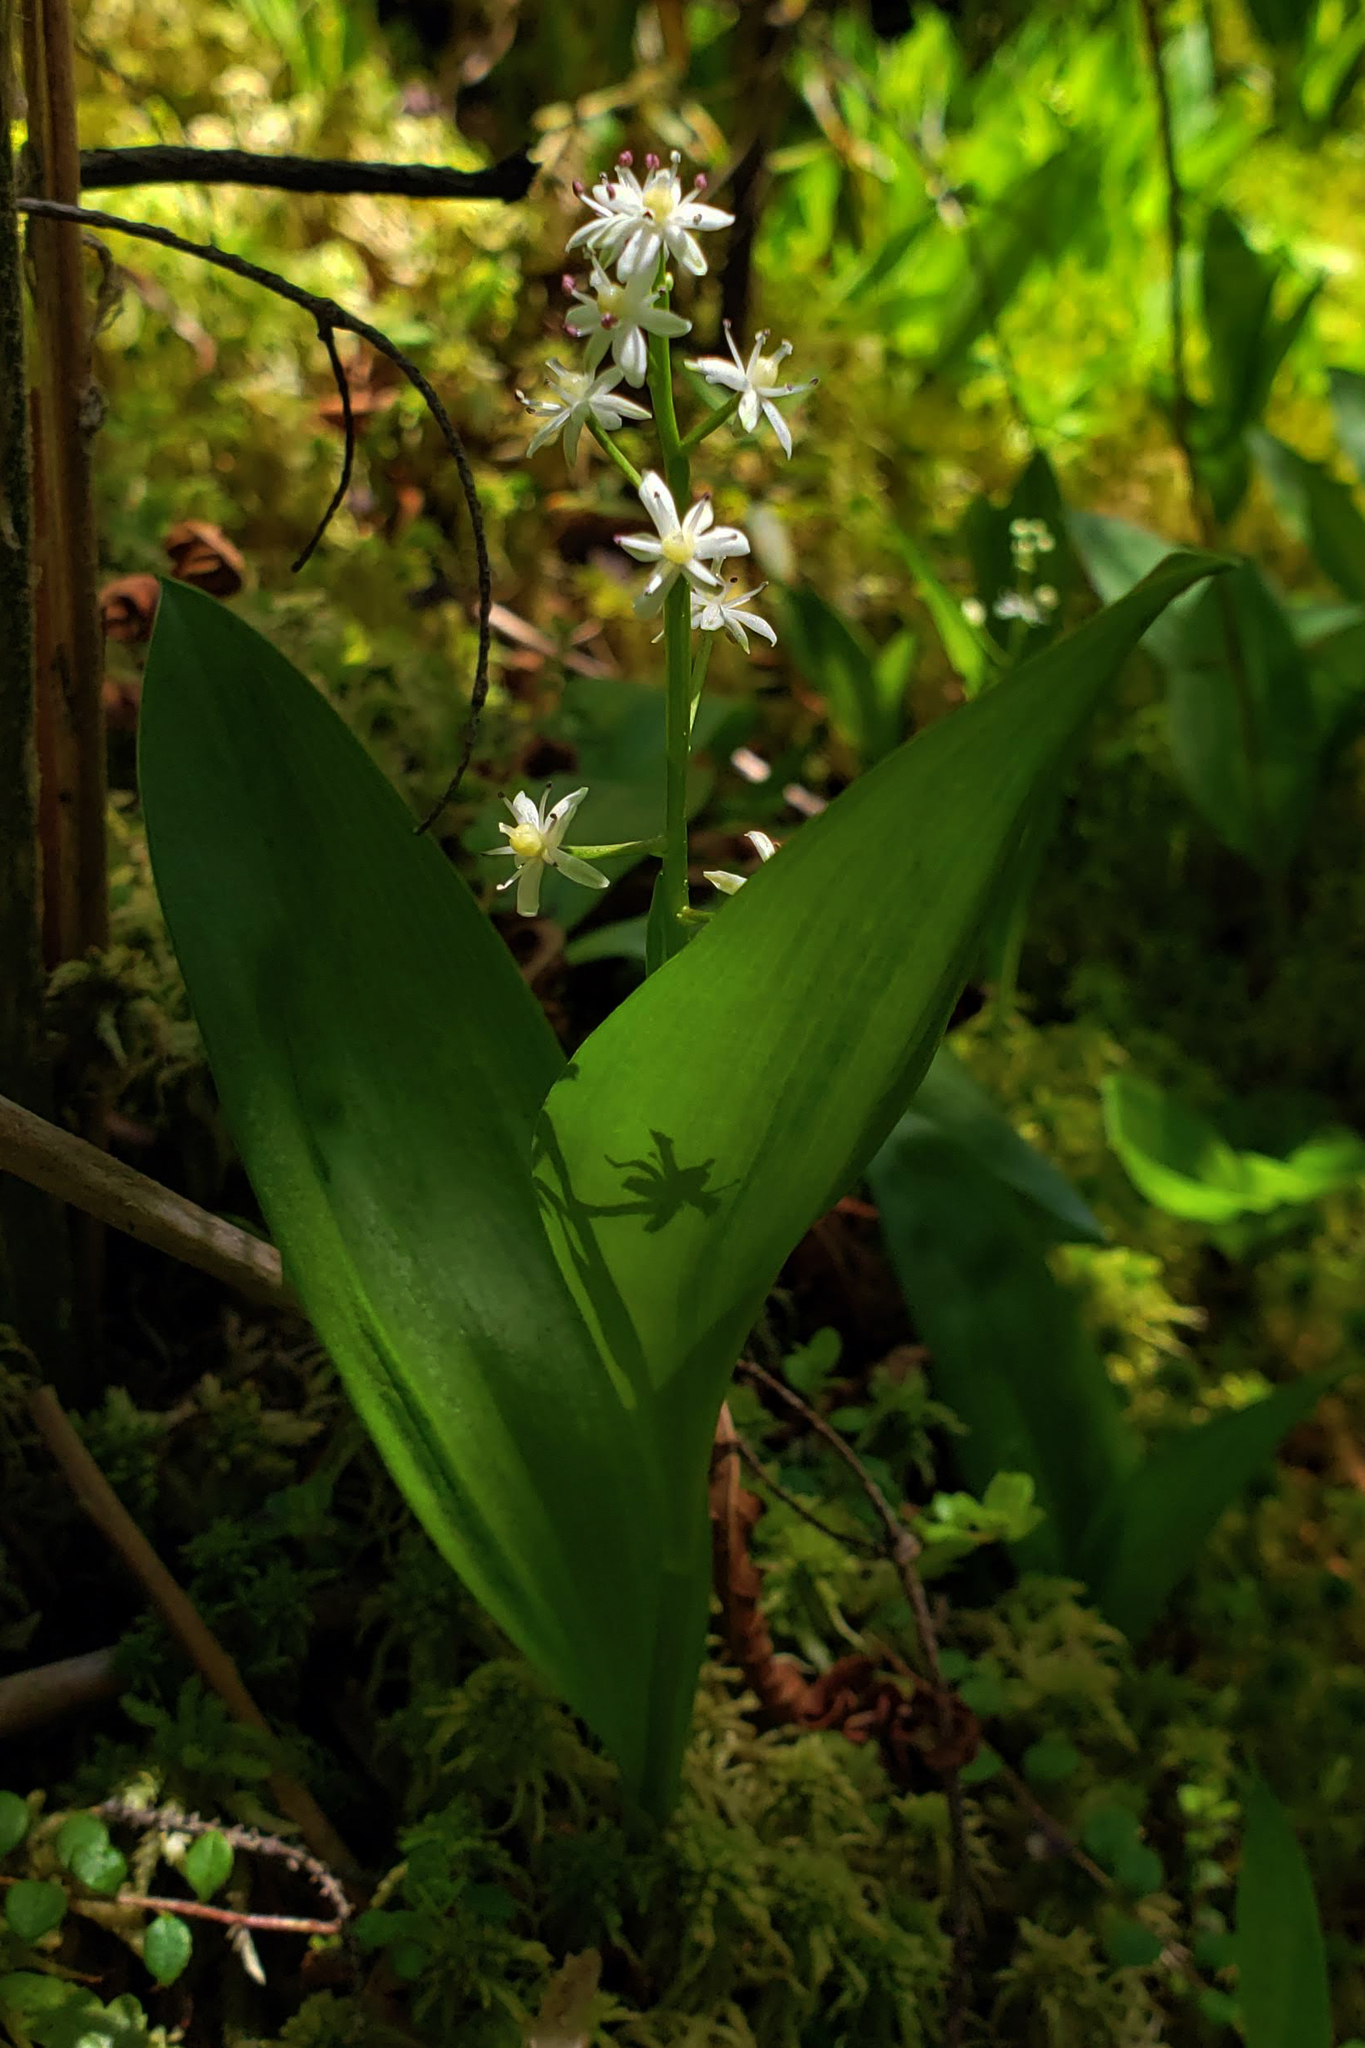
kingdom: Plantae
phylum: Tracheophyta
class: Liliopsida
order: Asparagales
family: Asparagaceae
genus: Maianthemum
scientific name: Maianthemum trifolium
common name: Swamp false solomon's seal
